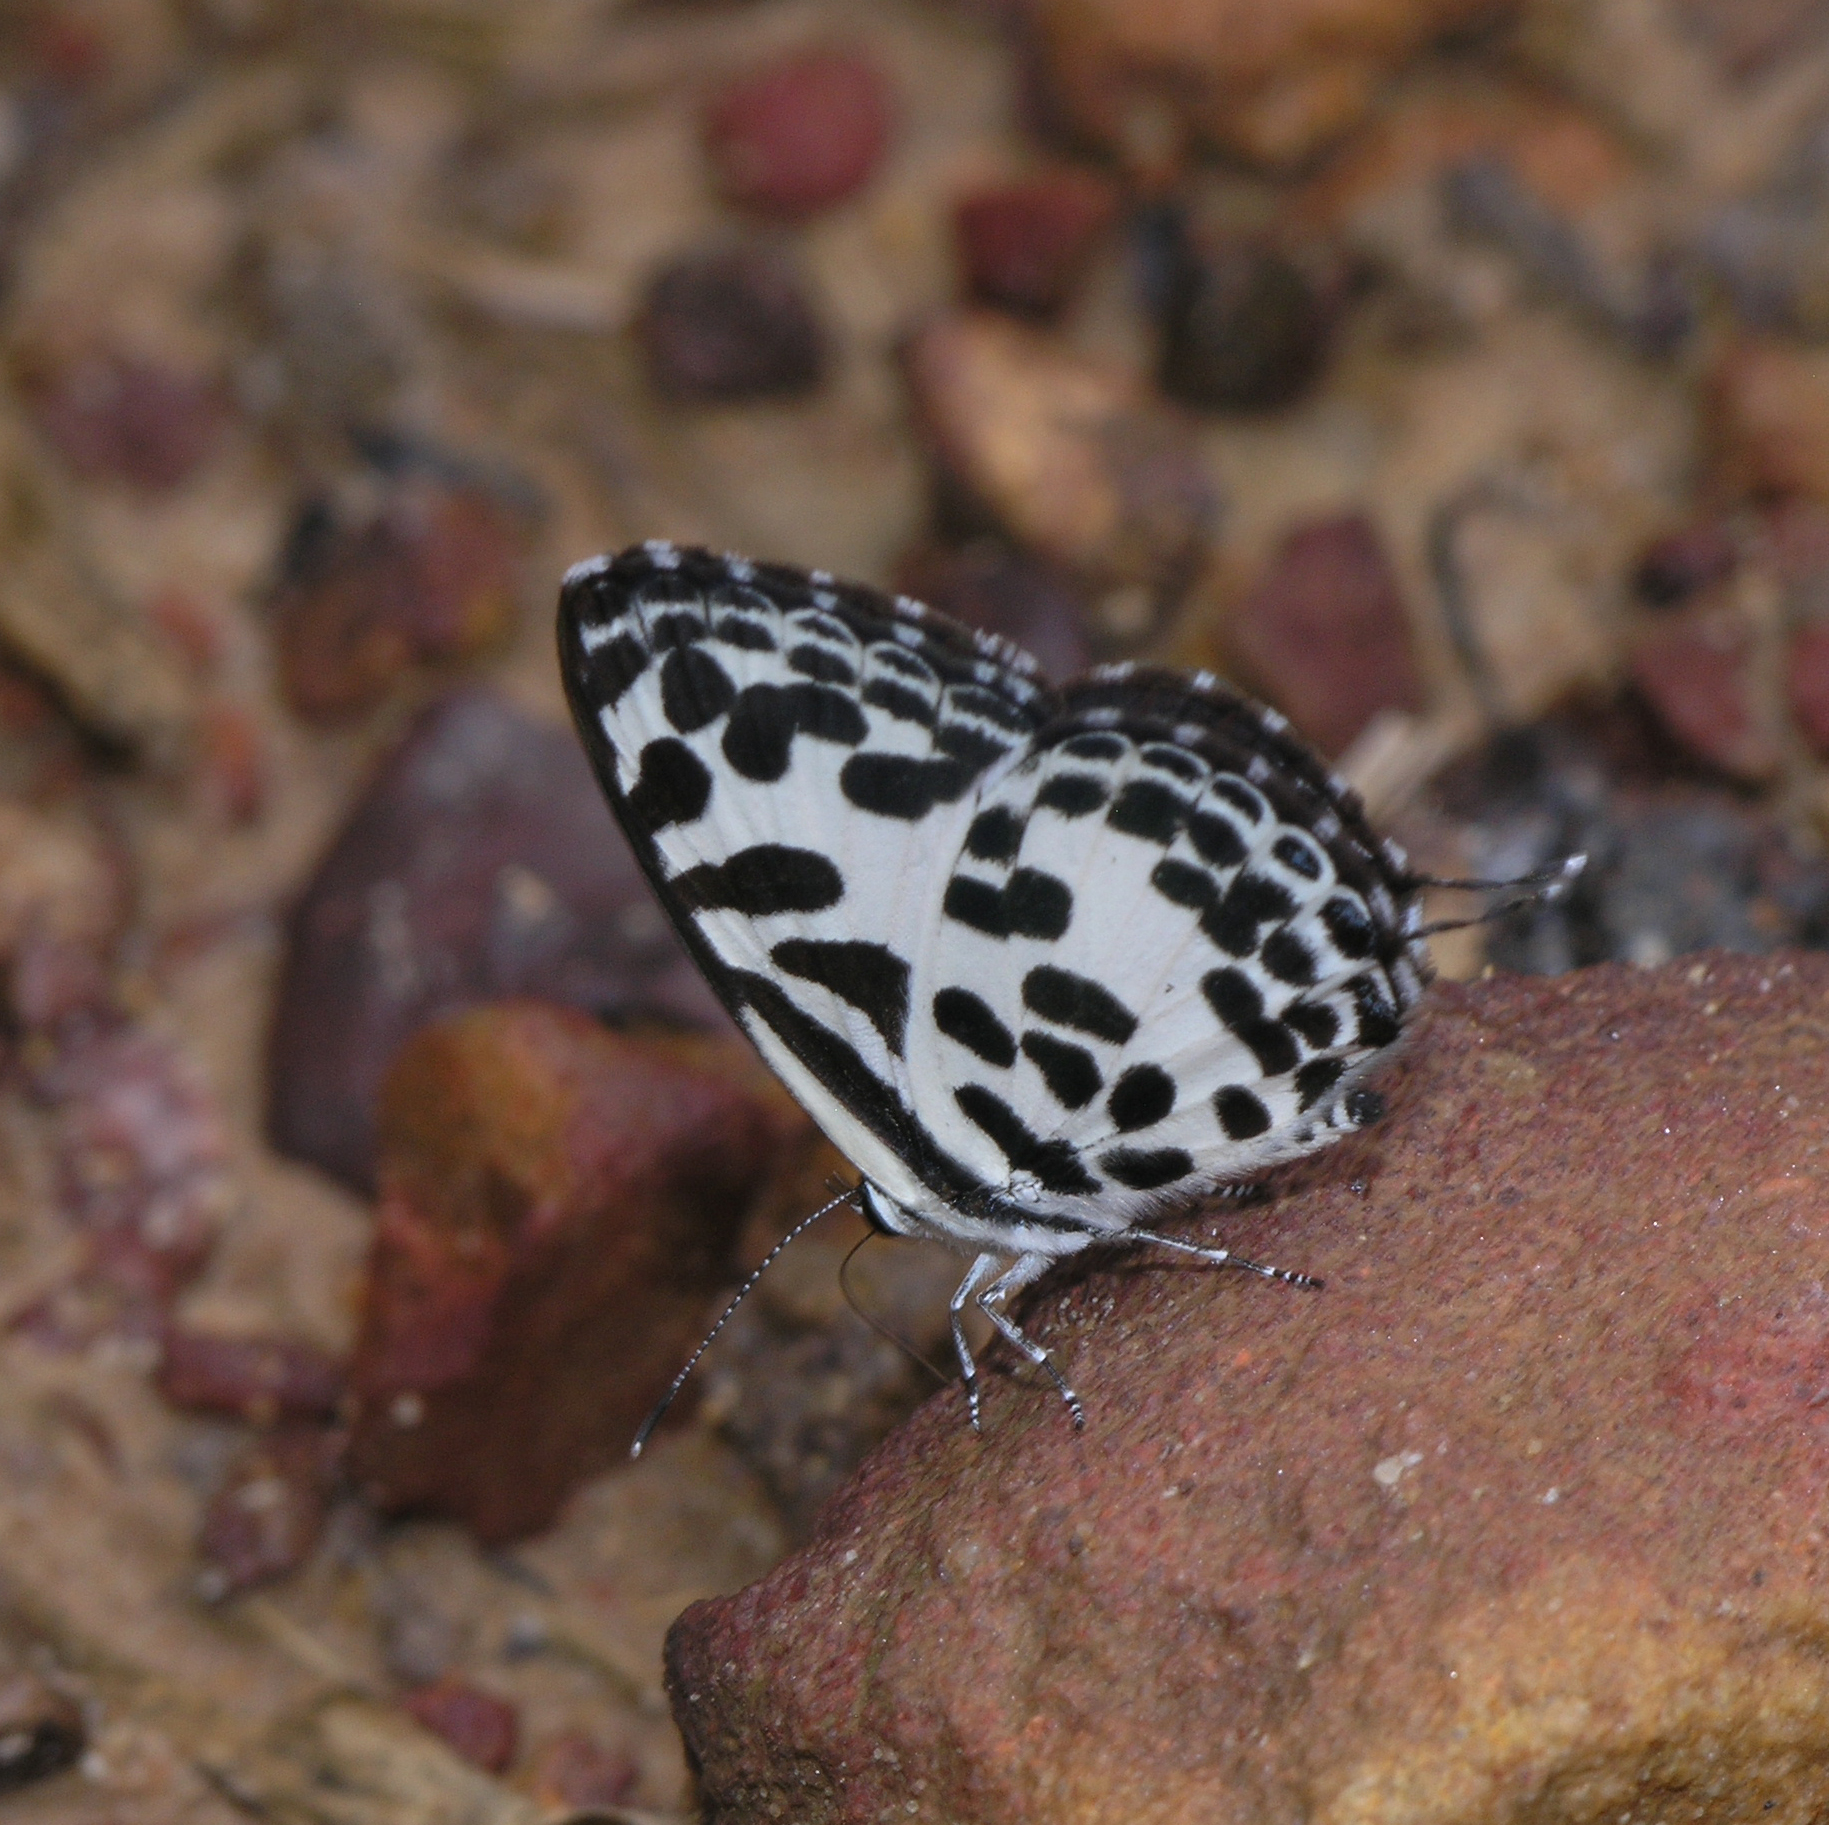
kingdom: Animalia
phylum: Arthropoda
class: Insecta
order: Lepidoptera
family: Lycaenidae
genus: Castalius
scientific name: Castalius rosimon
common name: Common pierrot
